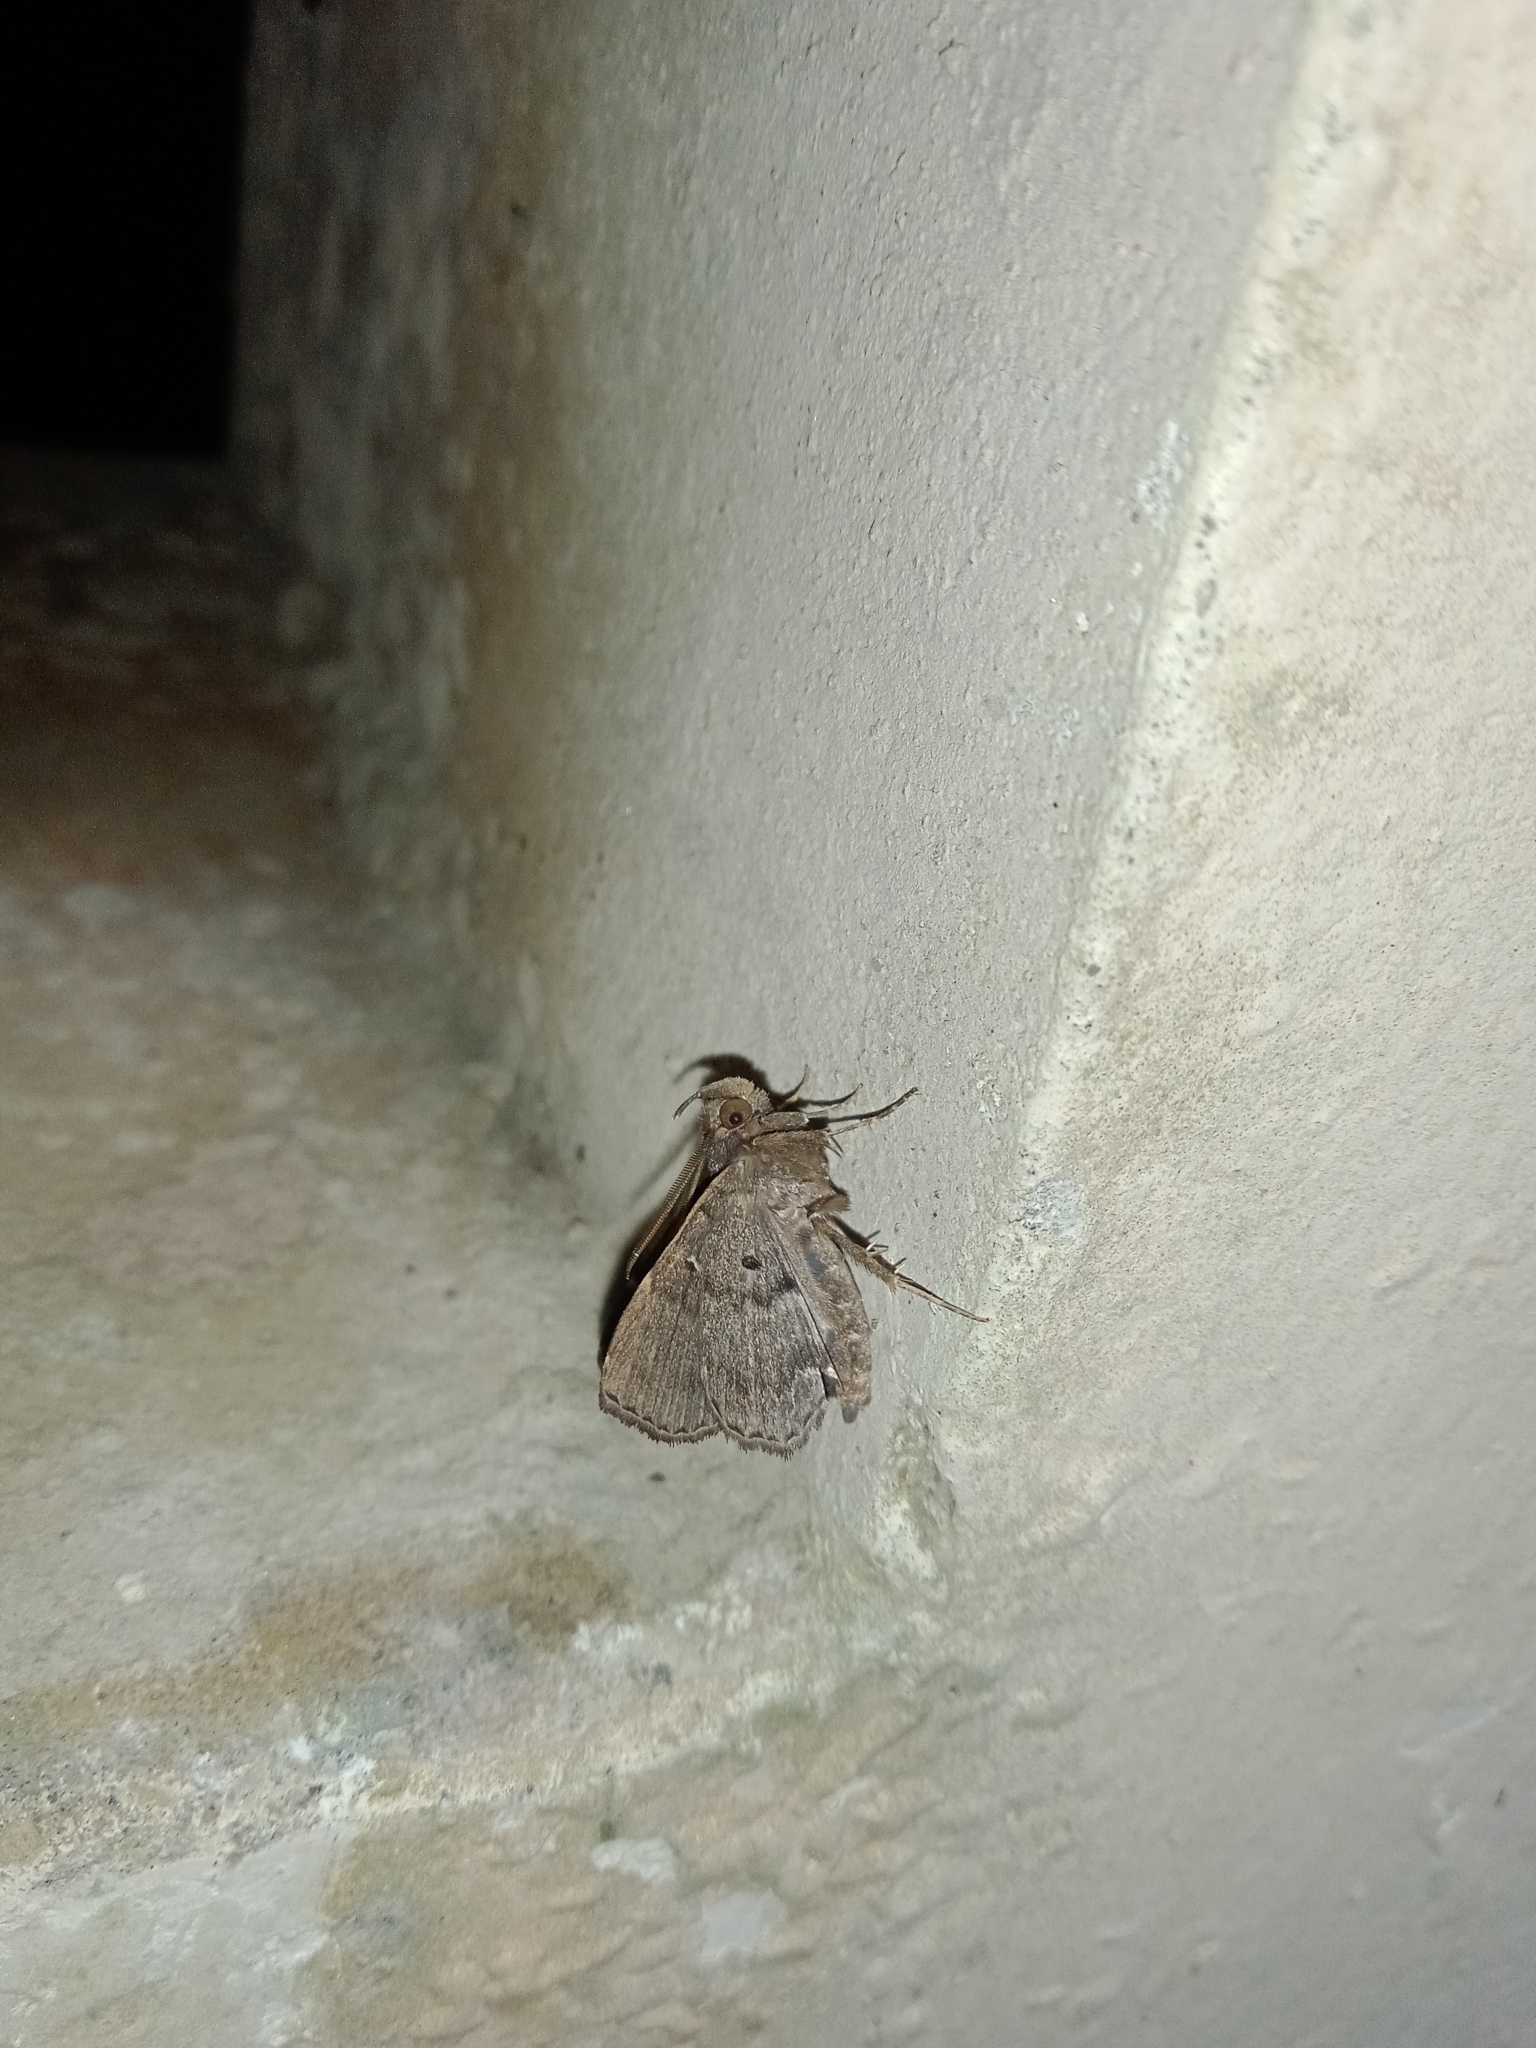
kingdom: Animalia
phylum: Arthropoda
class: Insecta
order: Lepidoptera
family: Erebidae
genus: Bocana
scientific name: Bocana manifestalis
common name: Moth
